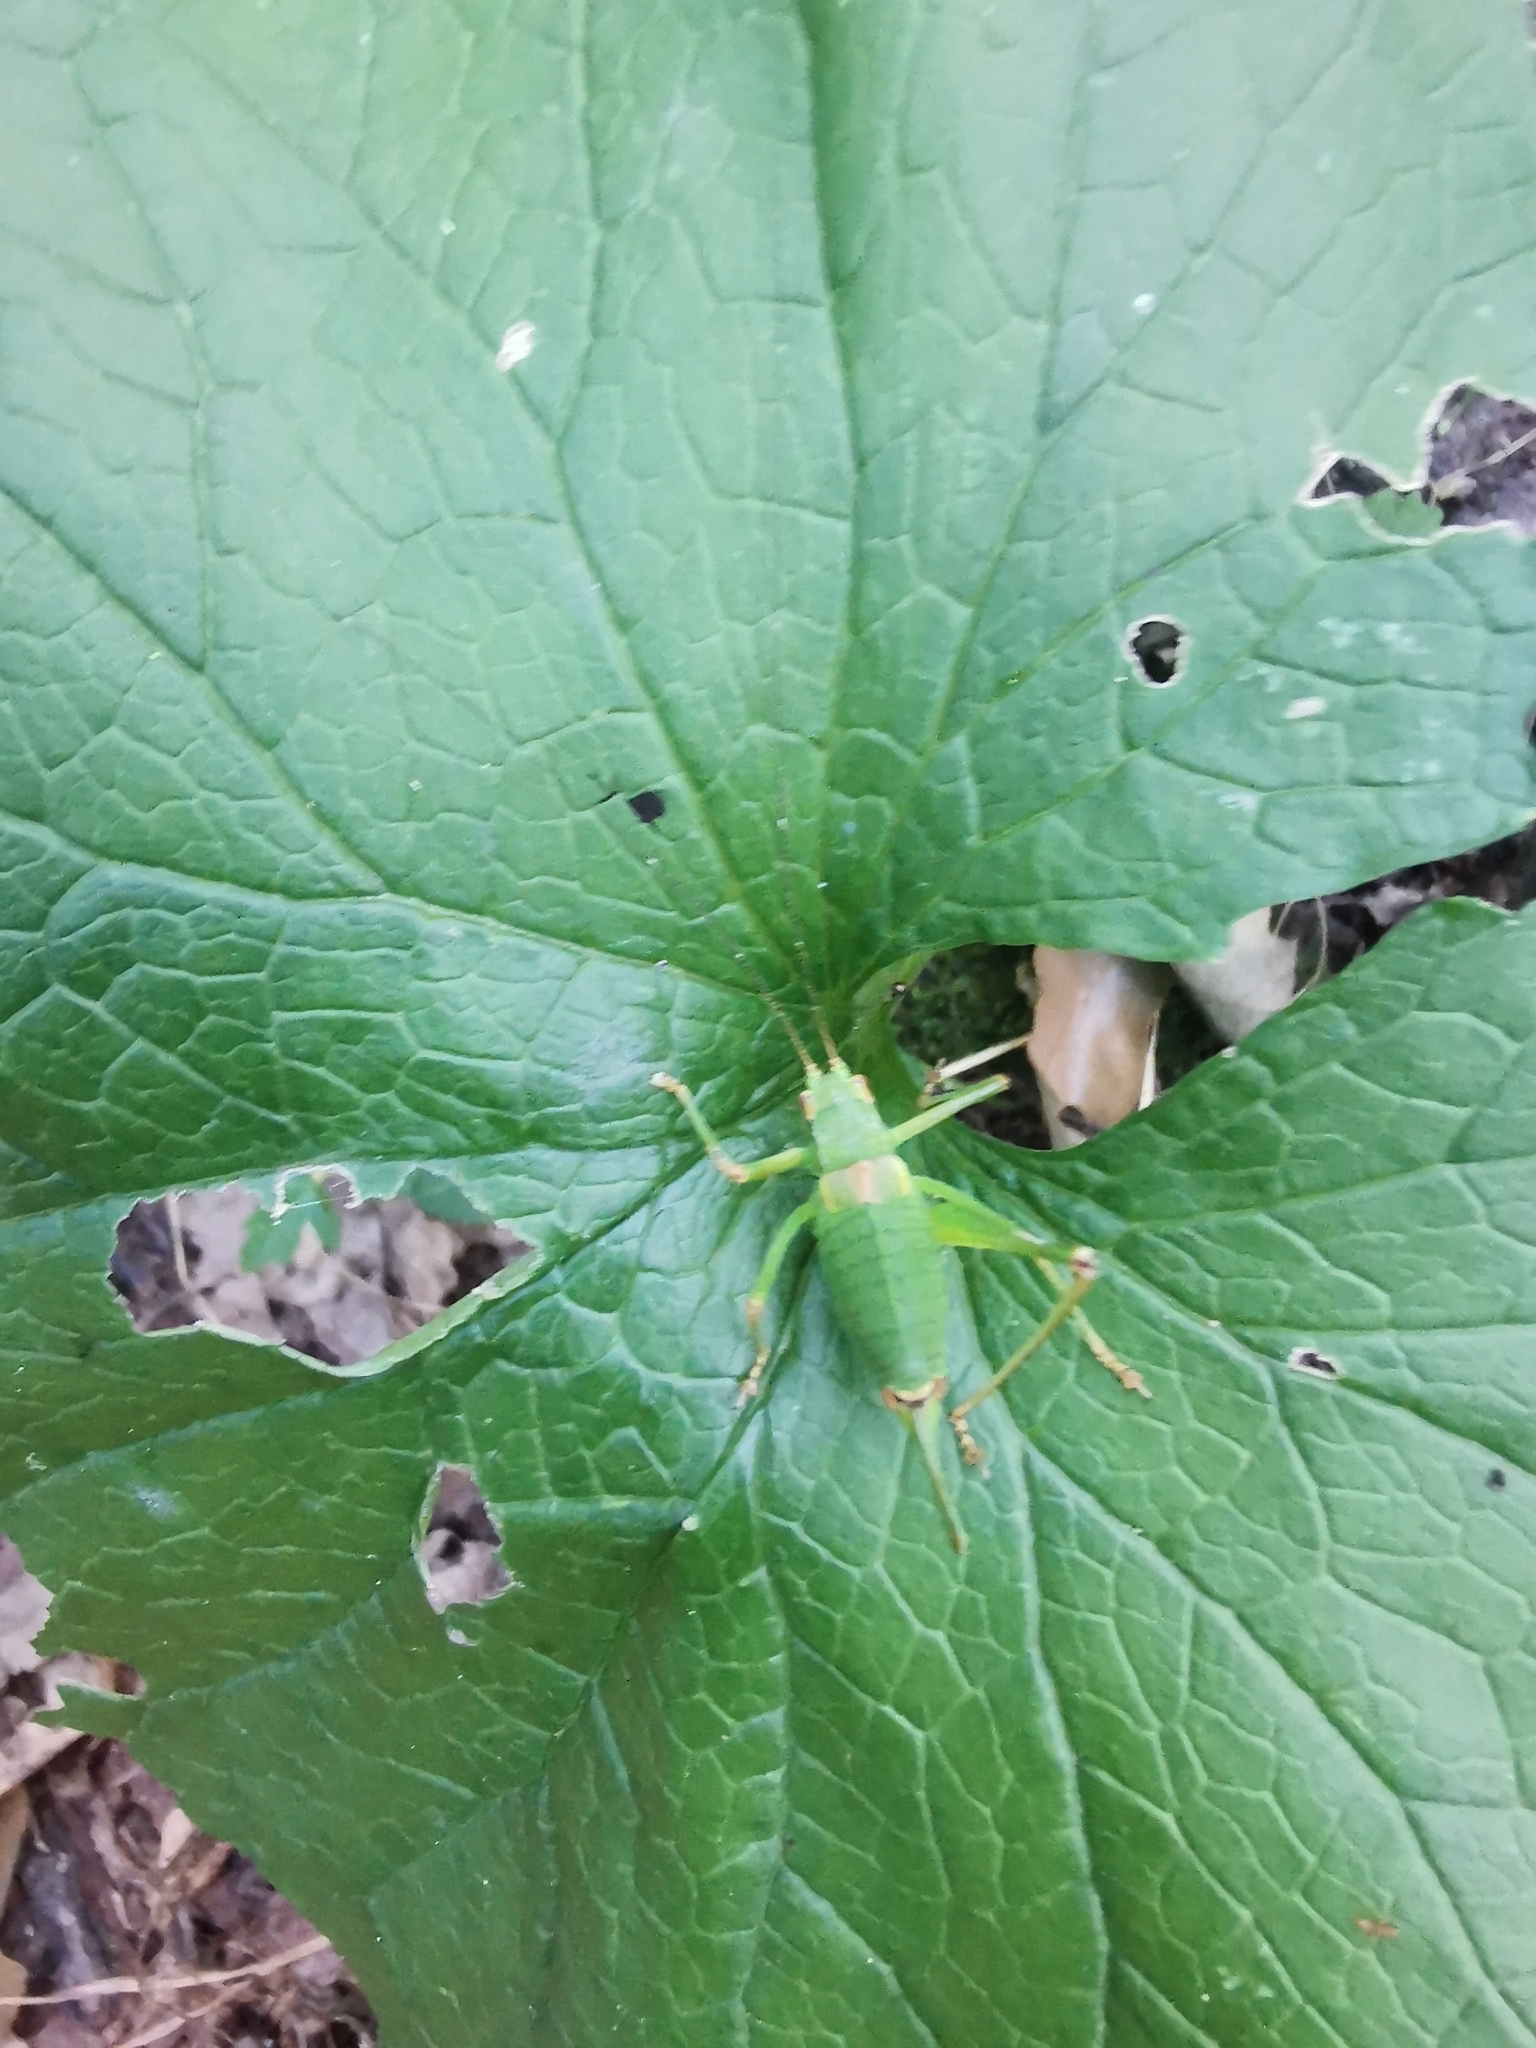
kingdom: Animalia
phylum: Arthropoda
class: Insecta
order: Orthoptera
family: Tettigoniidae
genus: Barbitistes
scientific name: Barbitistes constrictus
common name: Eastern saw-tailed bush cricket
